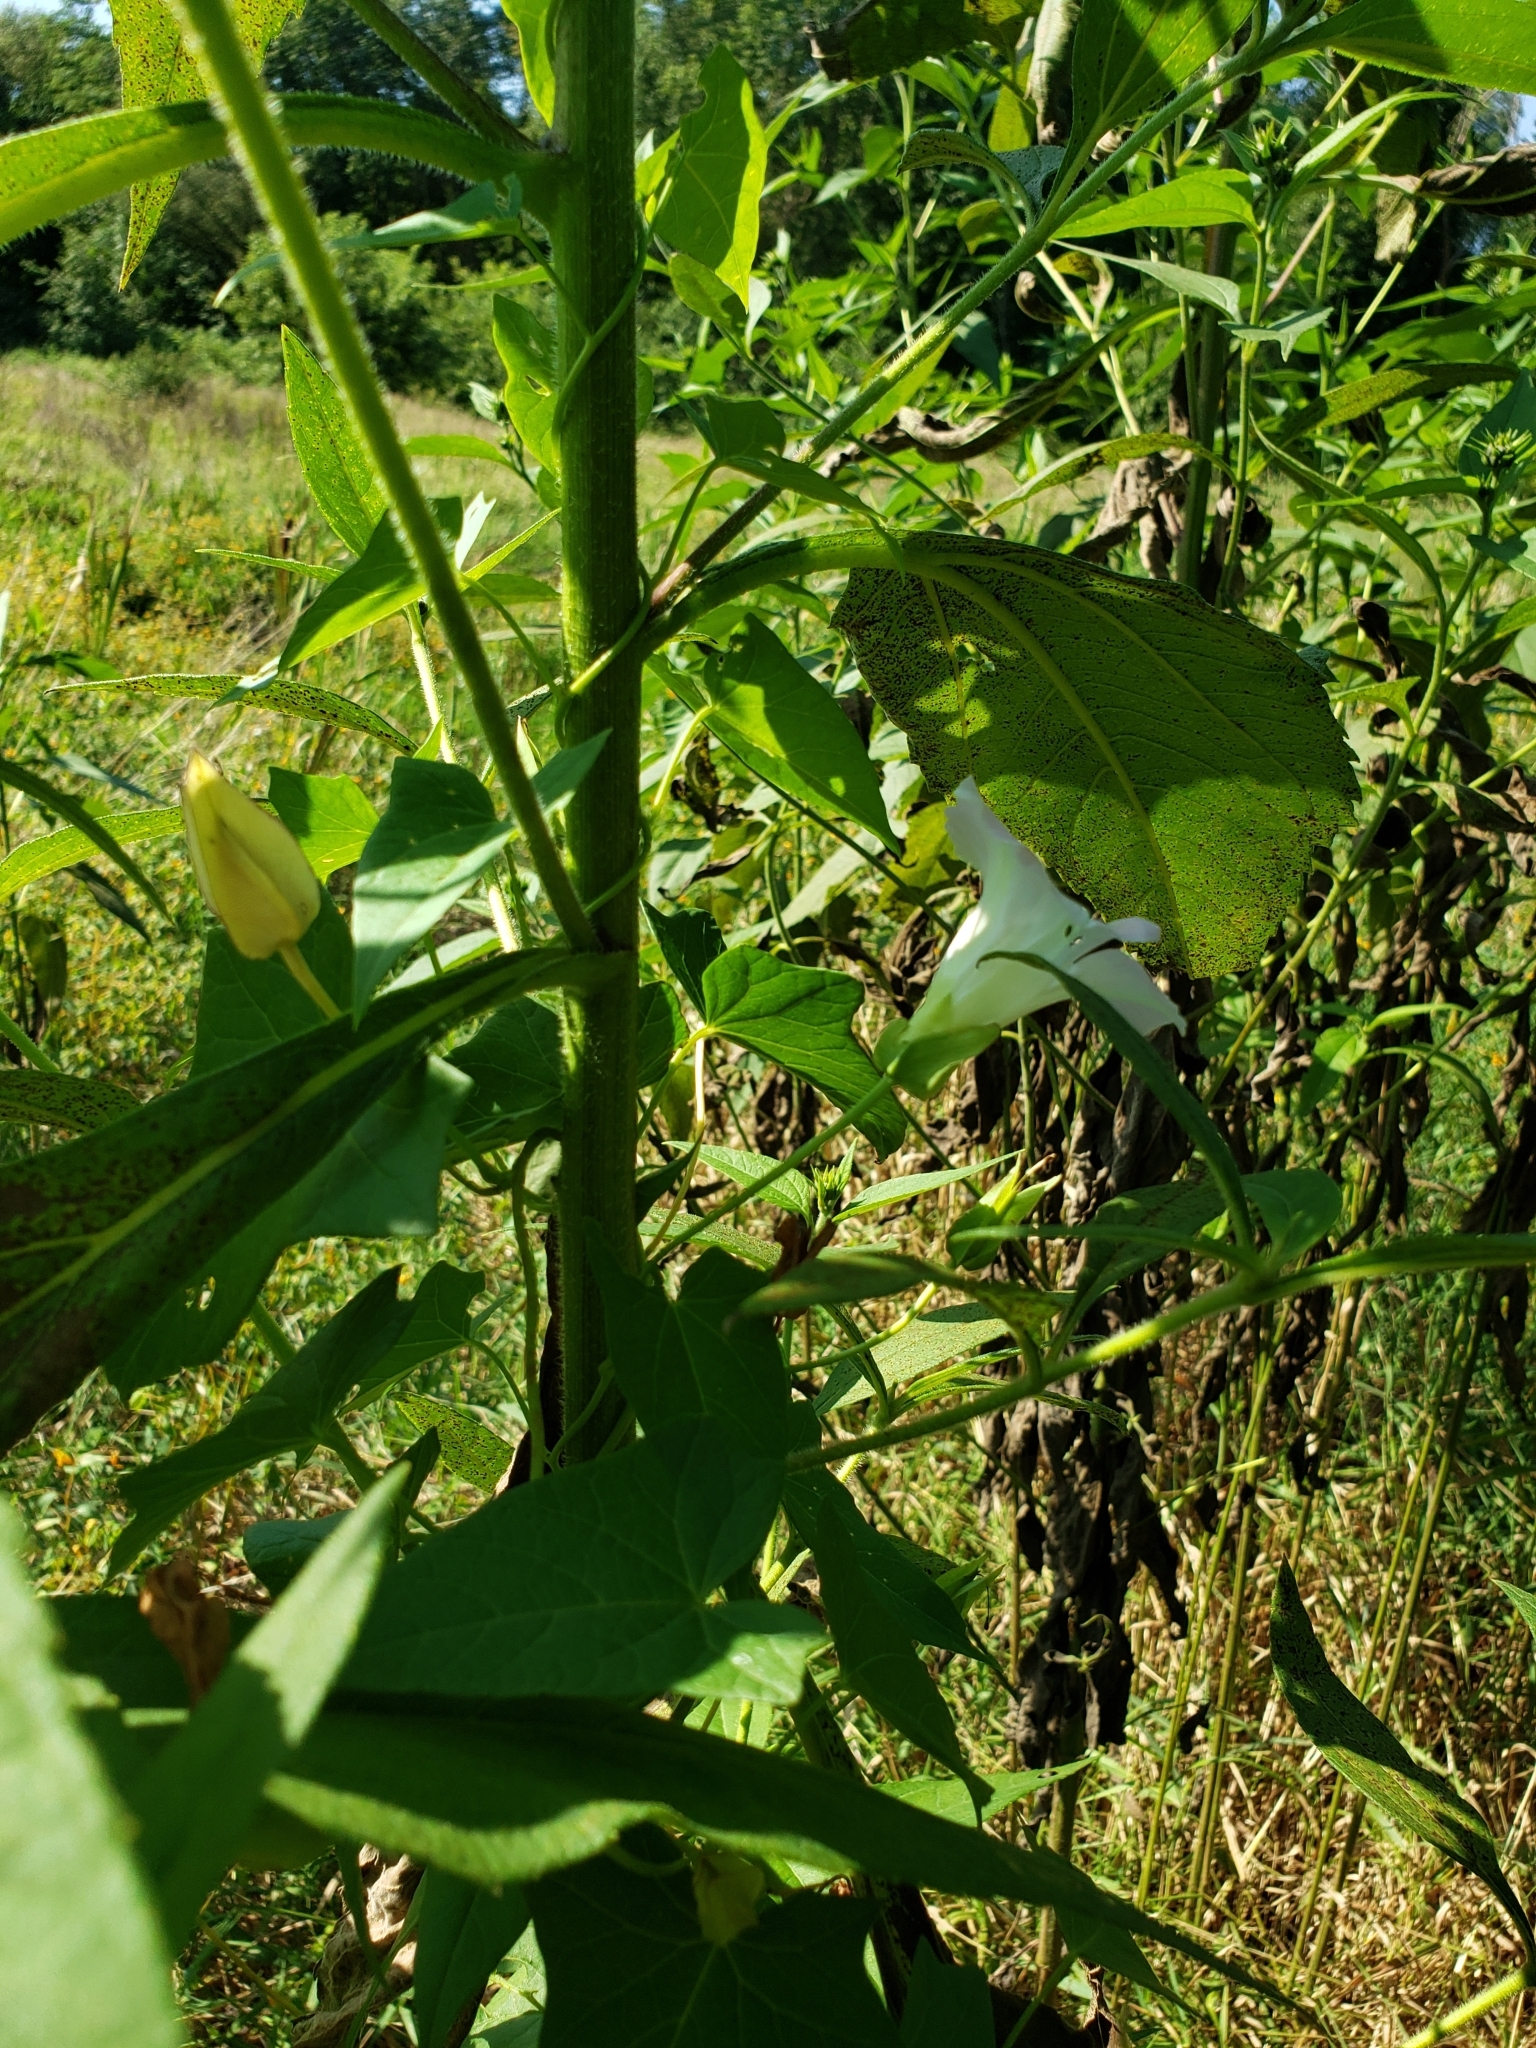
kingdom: Plantae
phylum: Tracheophyta
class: Magnoliopsida
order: Solanales
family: Convolvulaceae
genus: Calystegia
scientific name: Calystegia sepium
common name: Hedge bindweed
